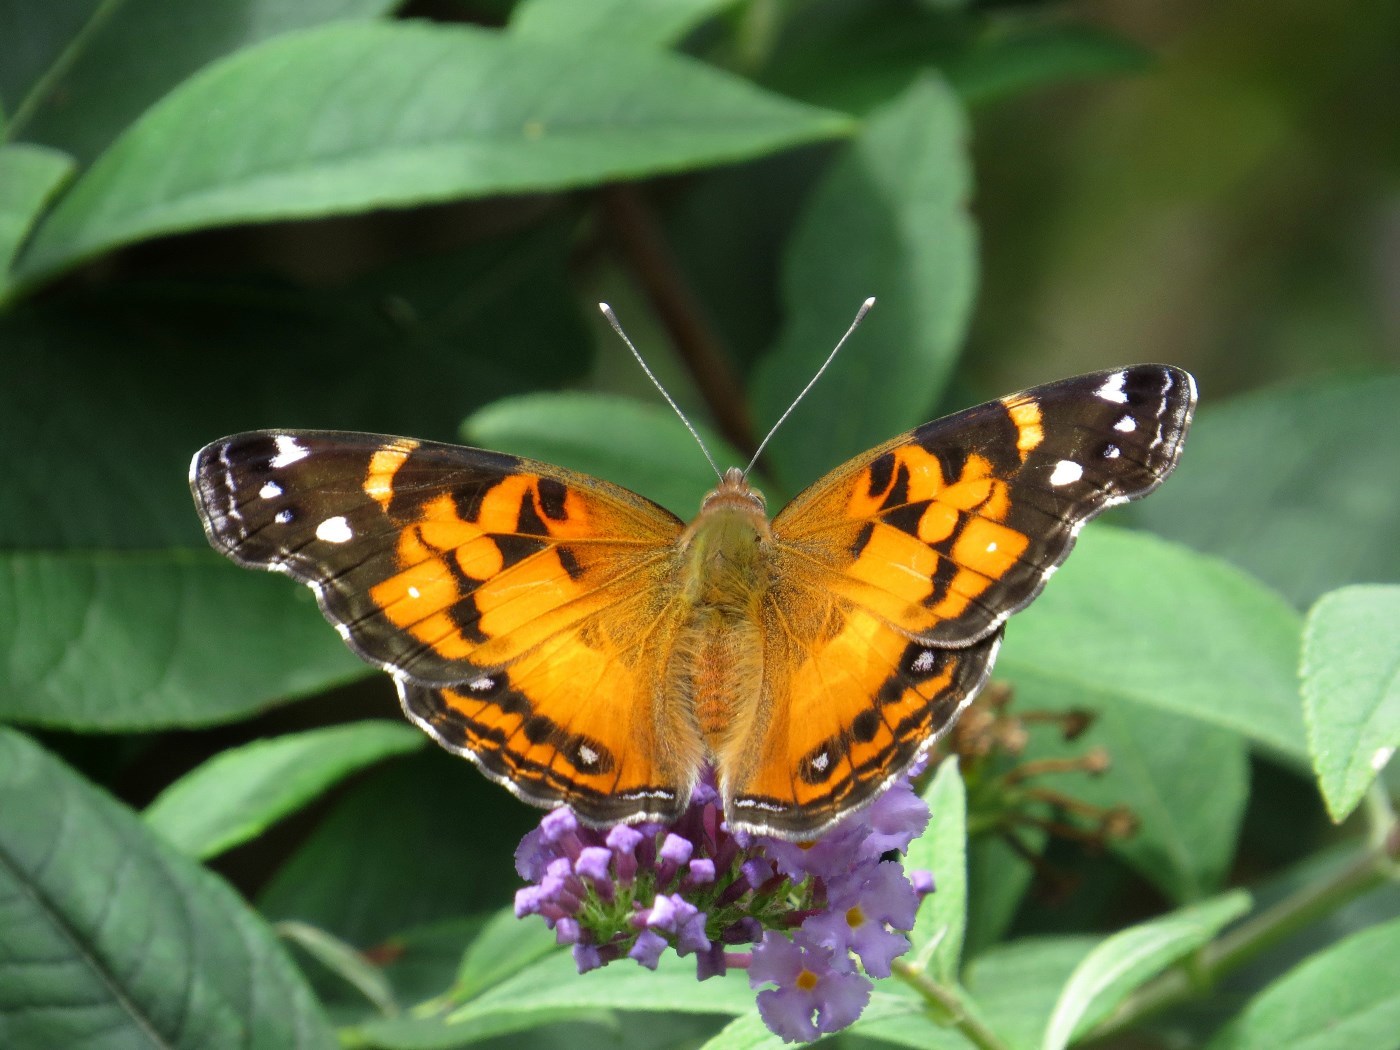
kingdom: Animalia
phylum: Arthropoda
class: Insecta
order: Lepidoptera
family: Nymphalidae
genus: Vanessa
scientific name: Vanessa virginiensis
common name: American lady
